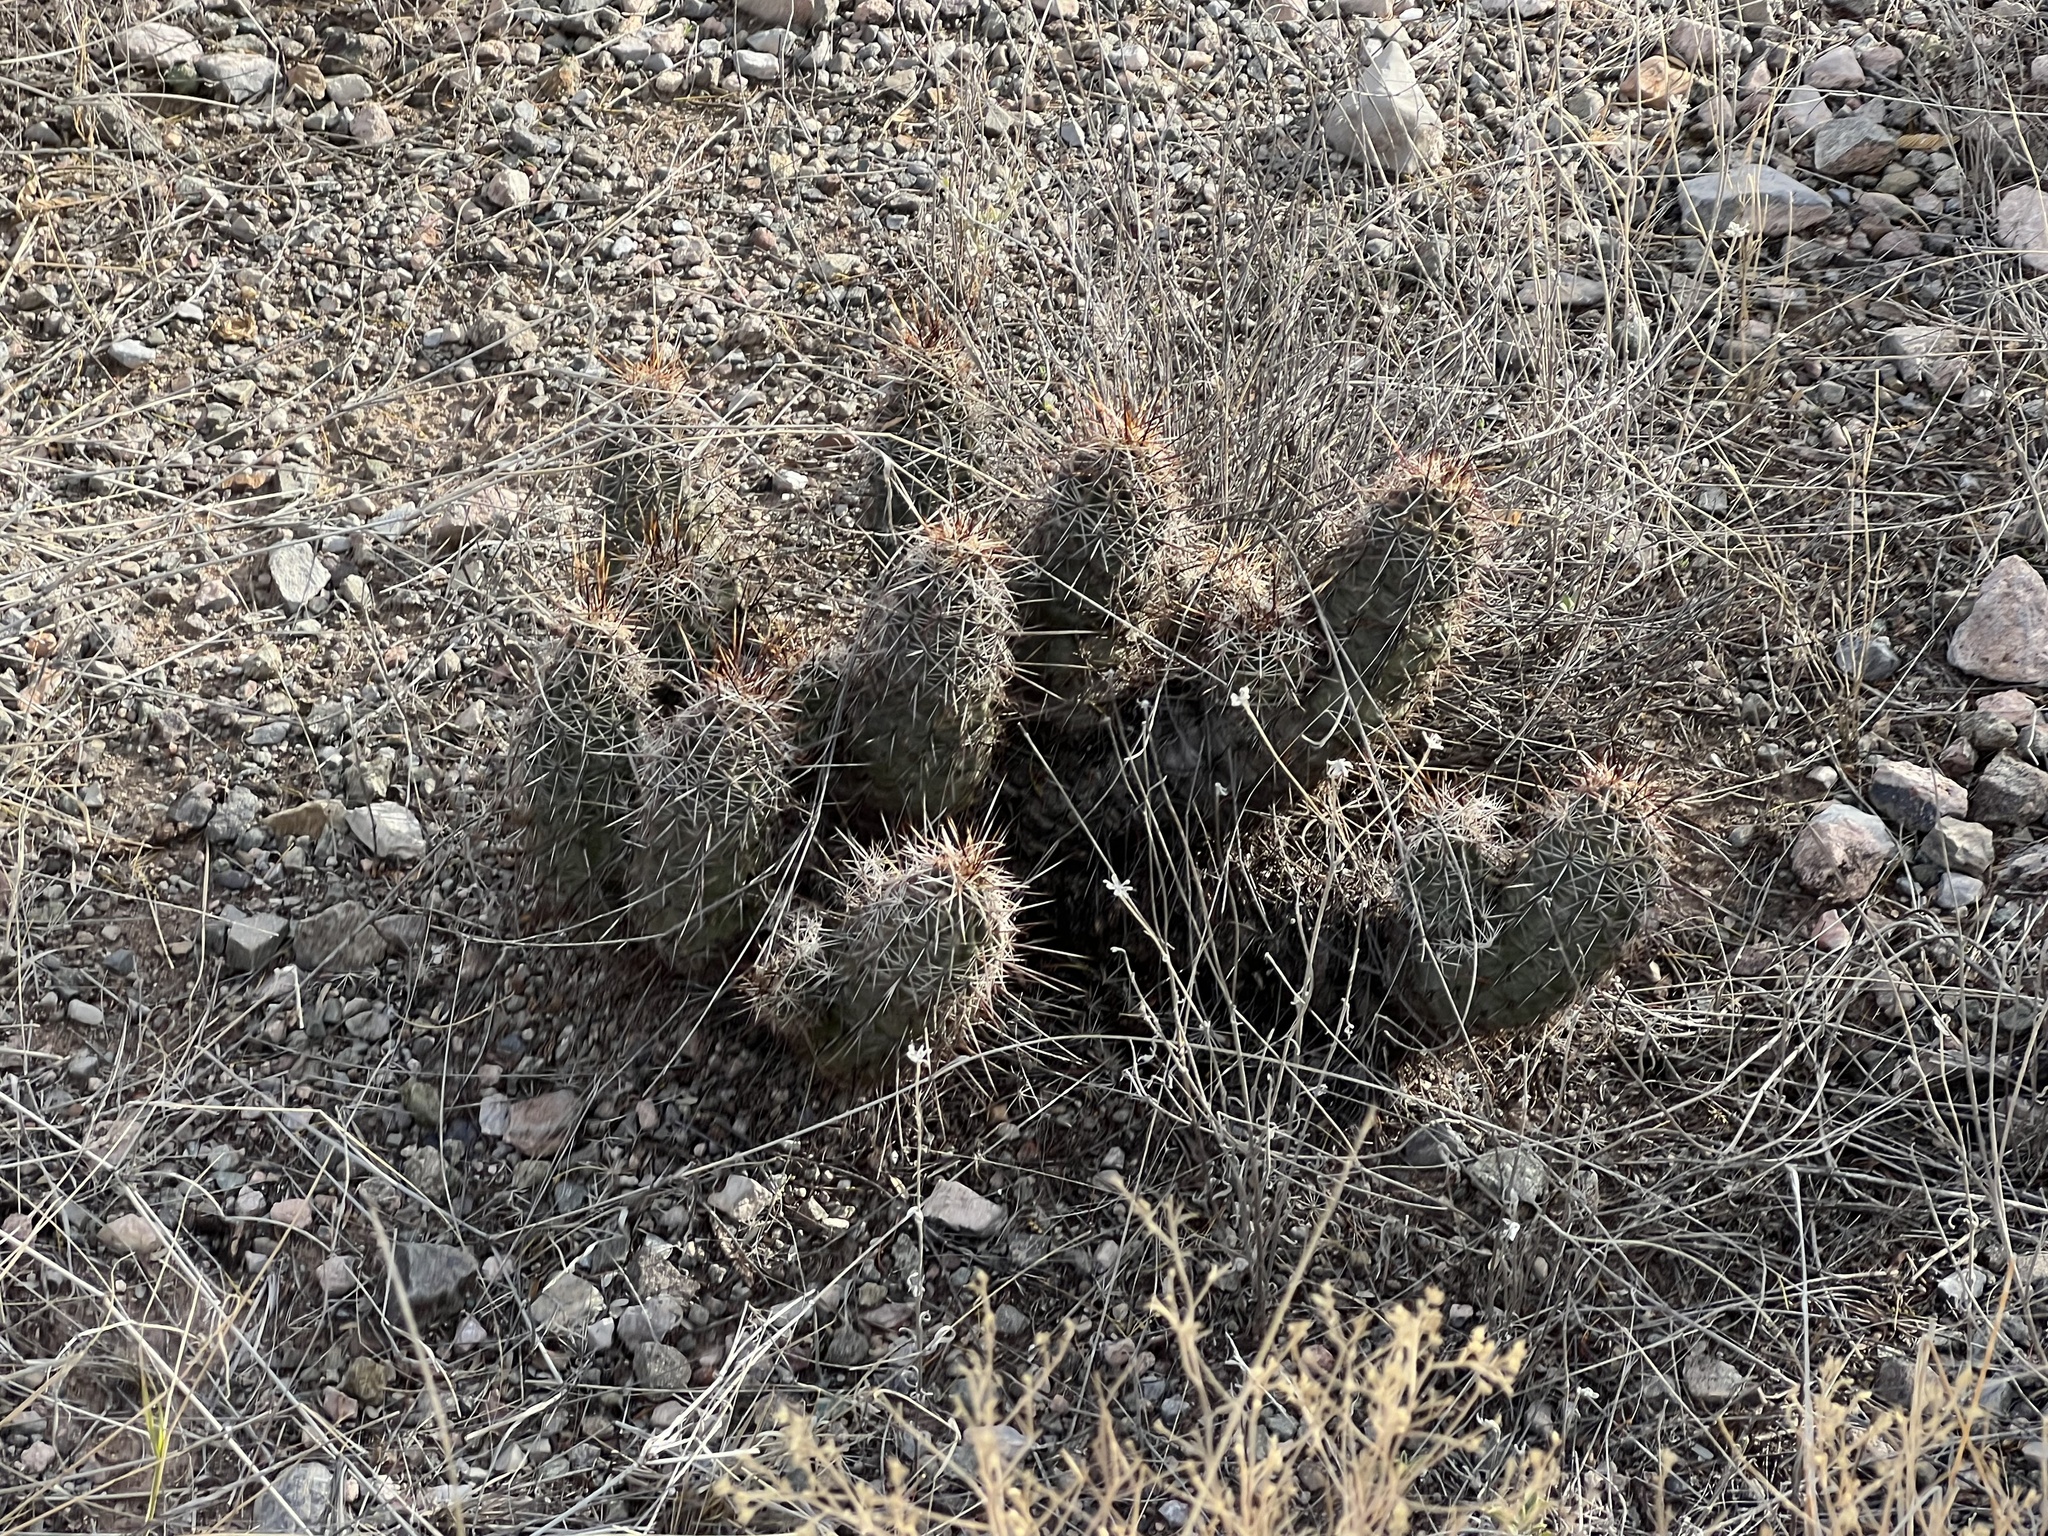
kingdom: Plantae
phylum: Tracheophyta
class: Magnoliopsida
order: Caryophyllales
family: Cactaceae
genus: Echinocereus
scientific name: Echinocereus fasciculatus
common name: Bundle hedgehog
